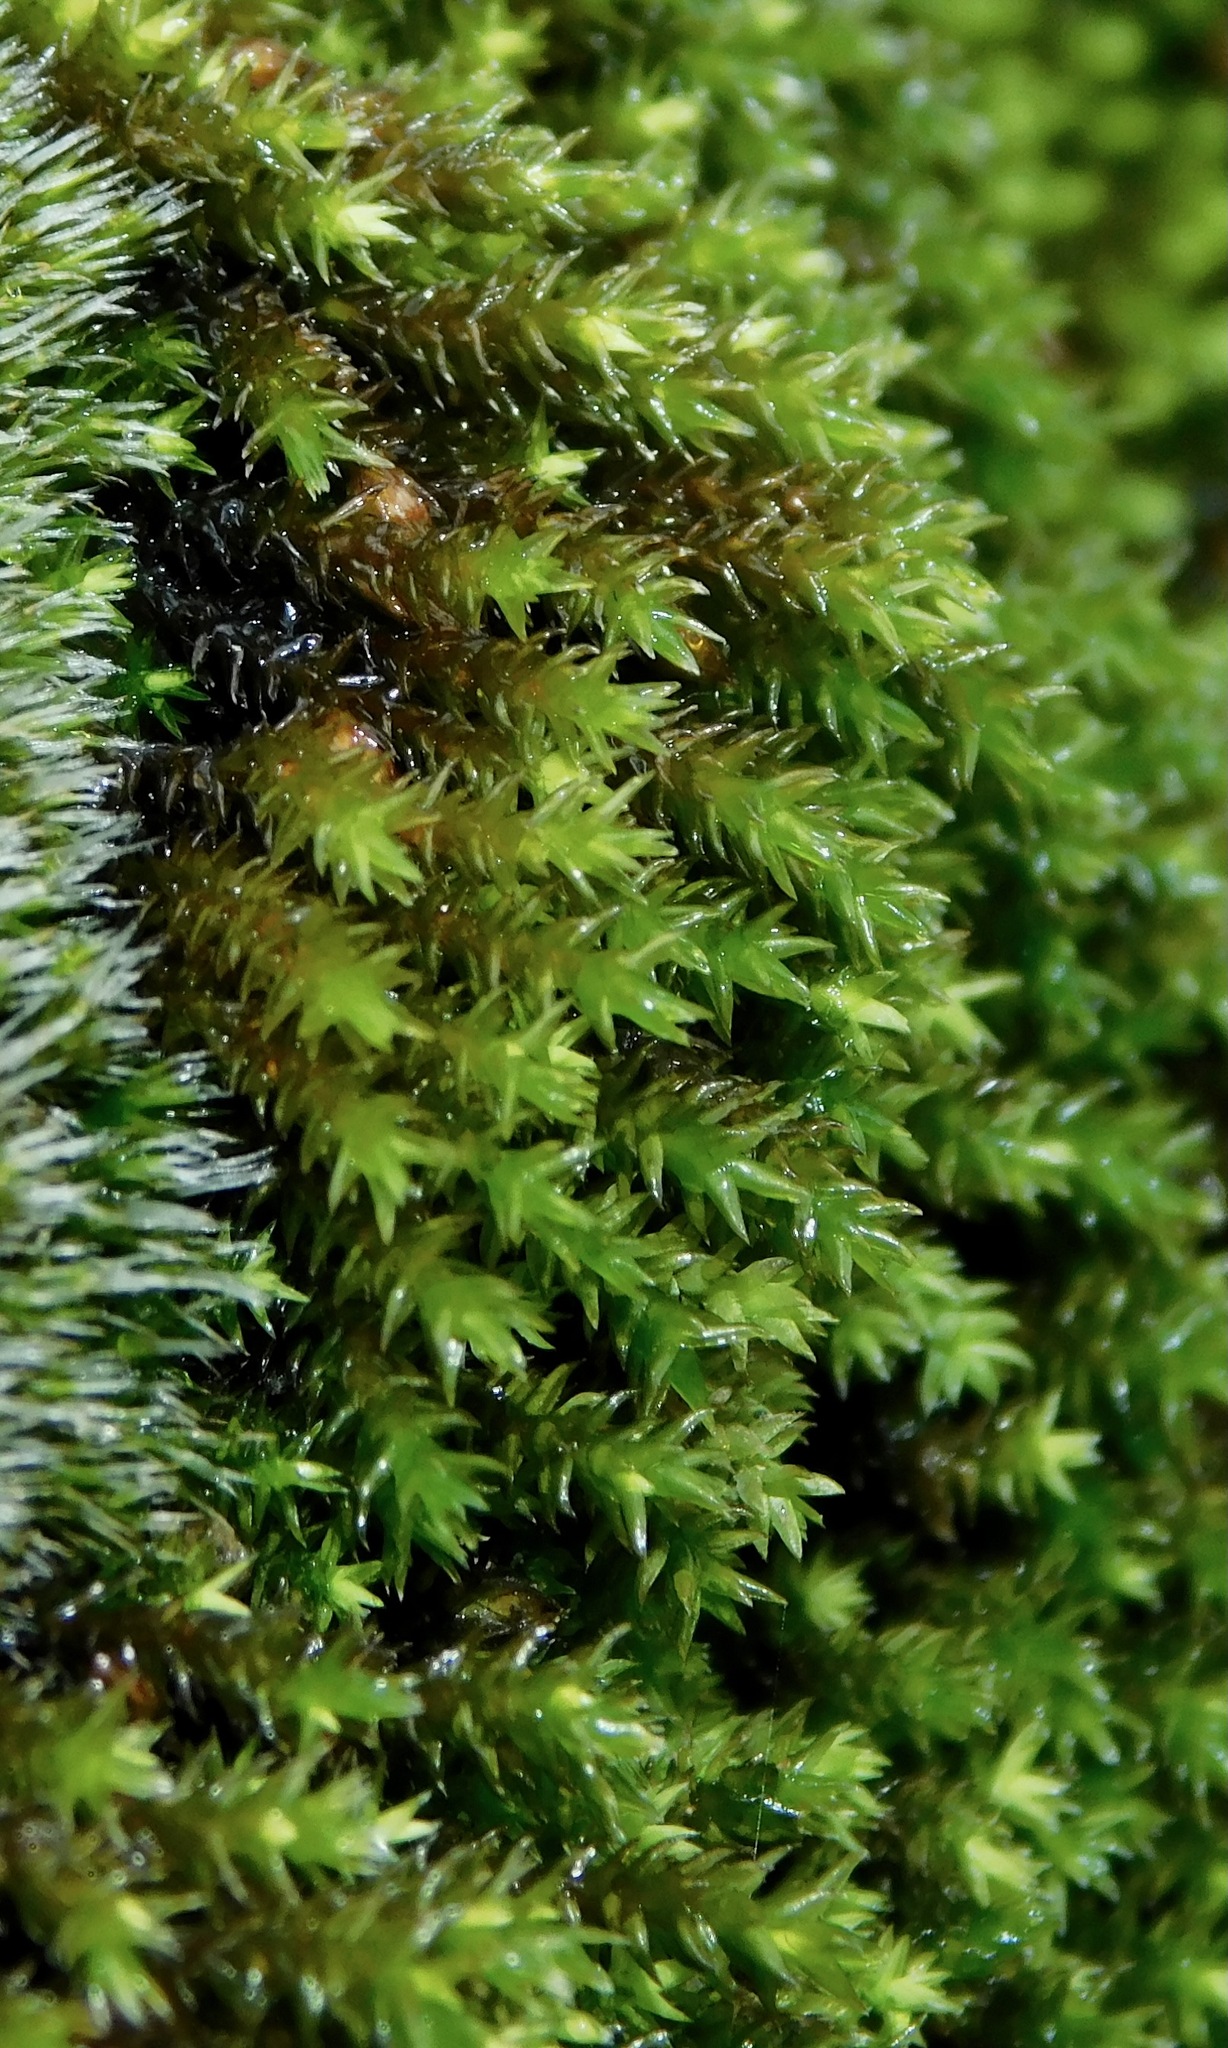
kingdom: Plantae
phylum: Bryophyta
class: Bryopsida
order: Hedwigiales
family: Hedwigiaceae
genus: Hedwigia
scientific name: Hedwigia ciliata
